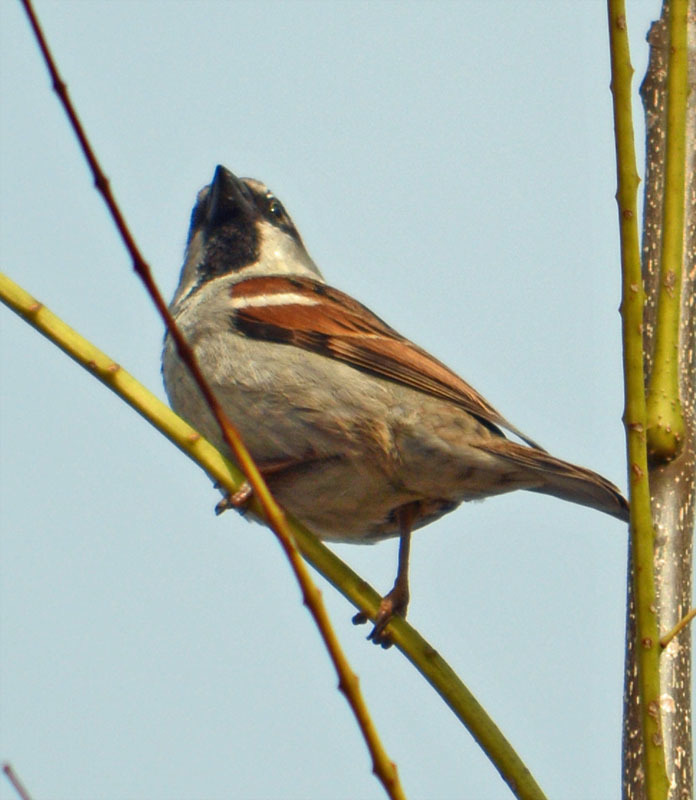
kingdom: Animalia
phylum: Chordata
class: Aves
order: Passeriformes
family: Passeridae
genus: Passer
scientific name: Passer domesticus
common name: House sparrow
